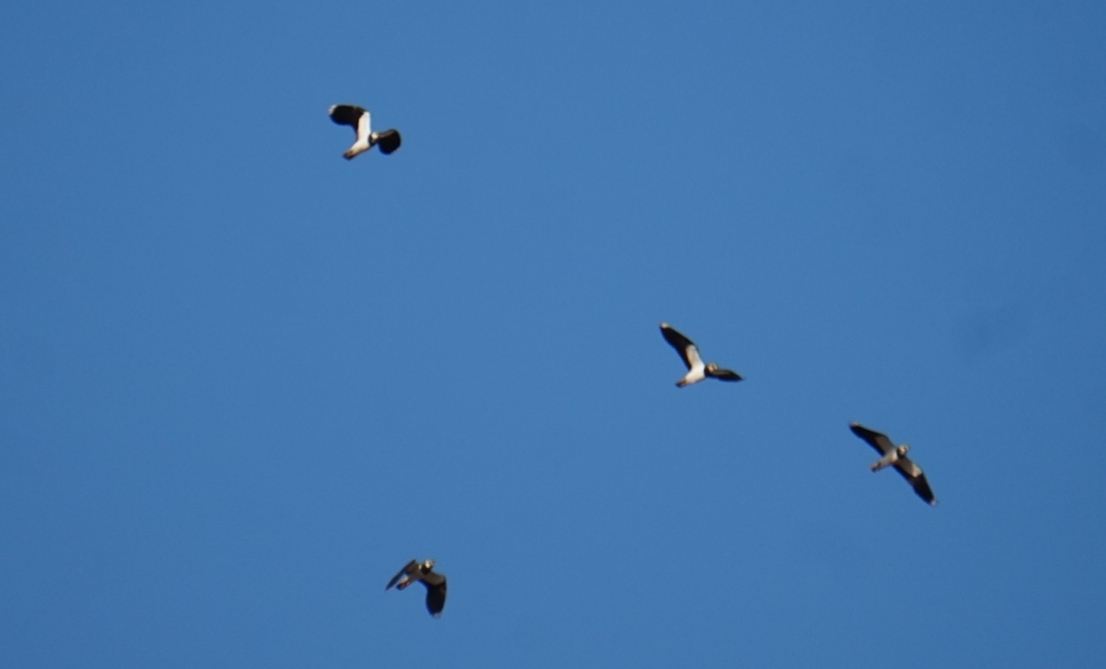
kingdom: Animalia
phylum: Chordata
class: Aves
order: Charadriiformes
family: Charadriidae
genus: Vanellus
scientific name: Vanellus vanellus
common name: Northern lapwing
